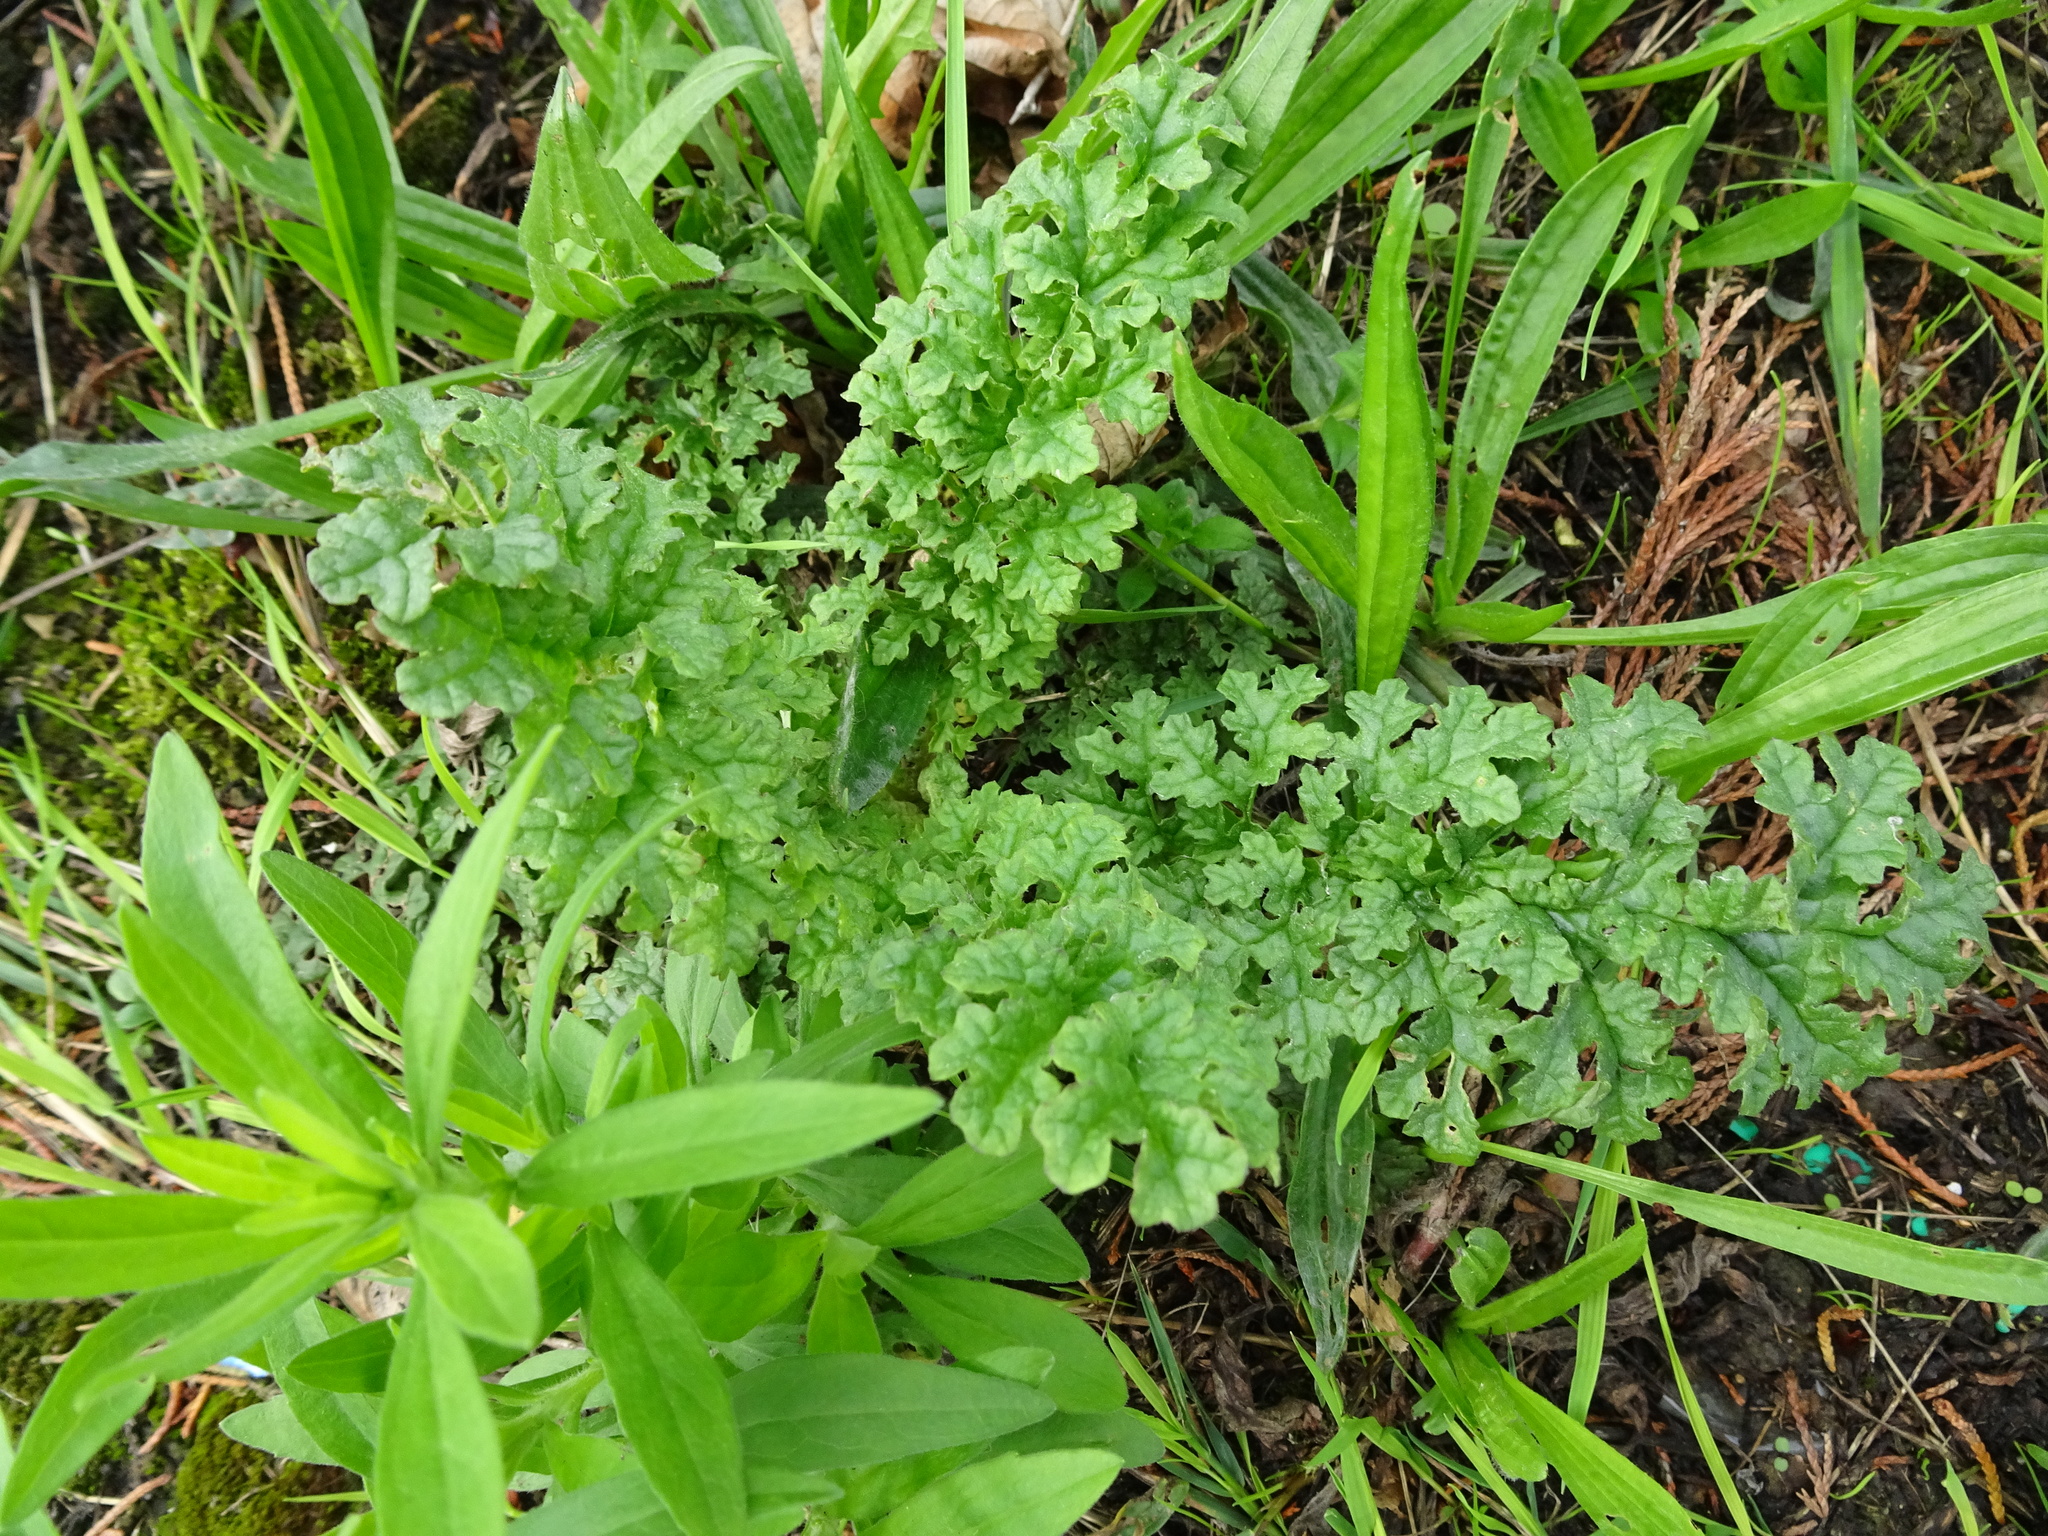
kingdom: Plantae
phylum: Tracheophyta
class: Magnoliopsida
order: Asterales
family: Asteraceae
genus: Jacobaea
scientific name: Jacobaea vulgaris
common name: Stinking willie
